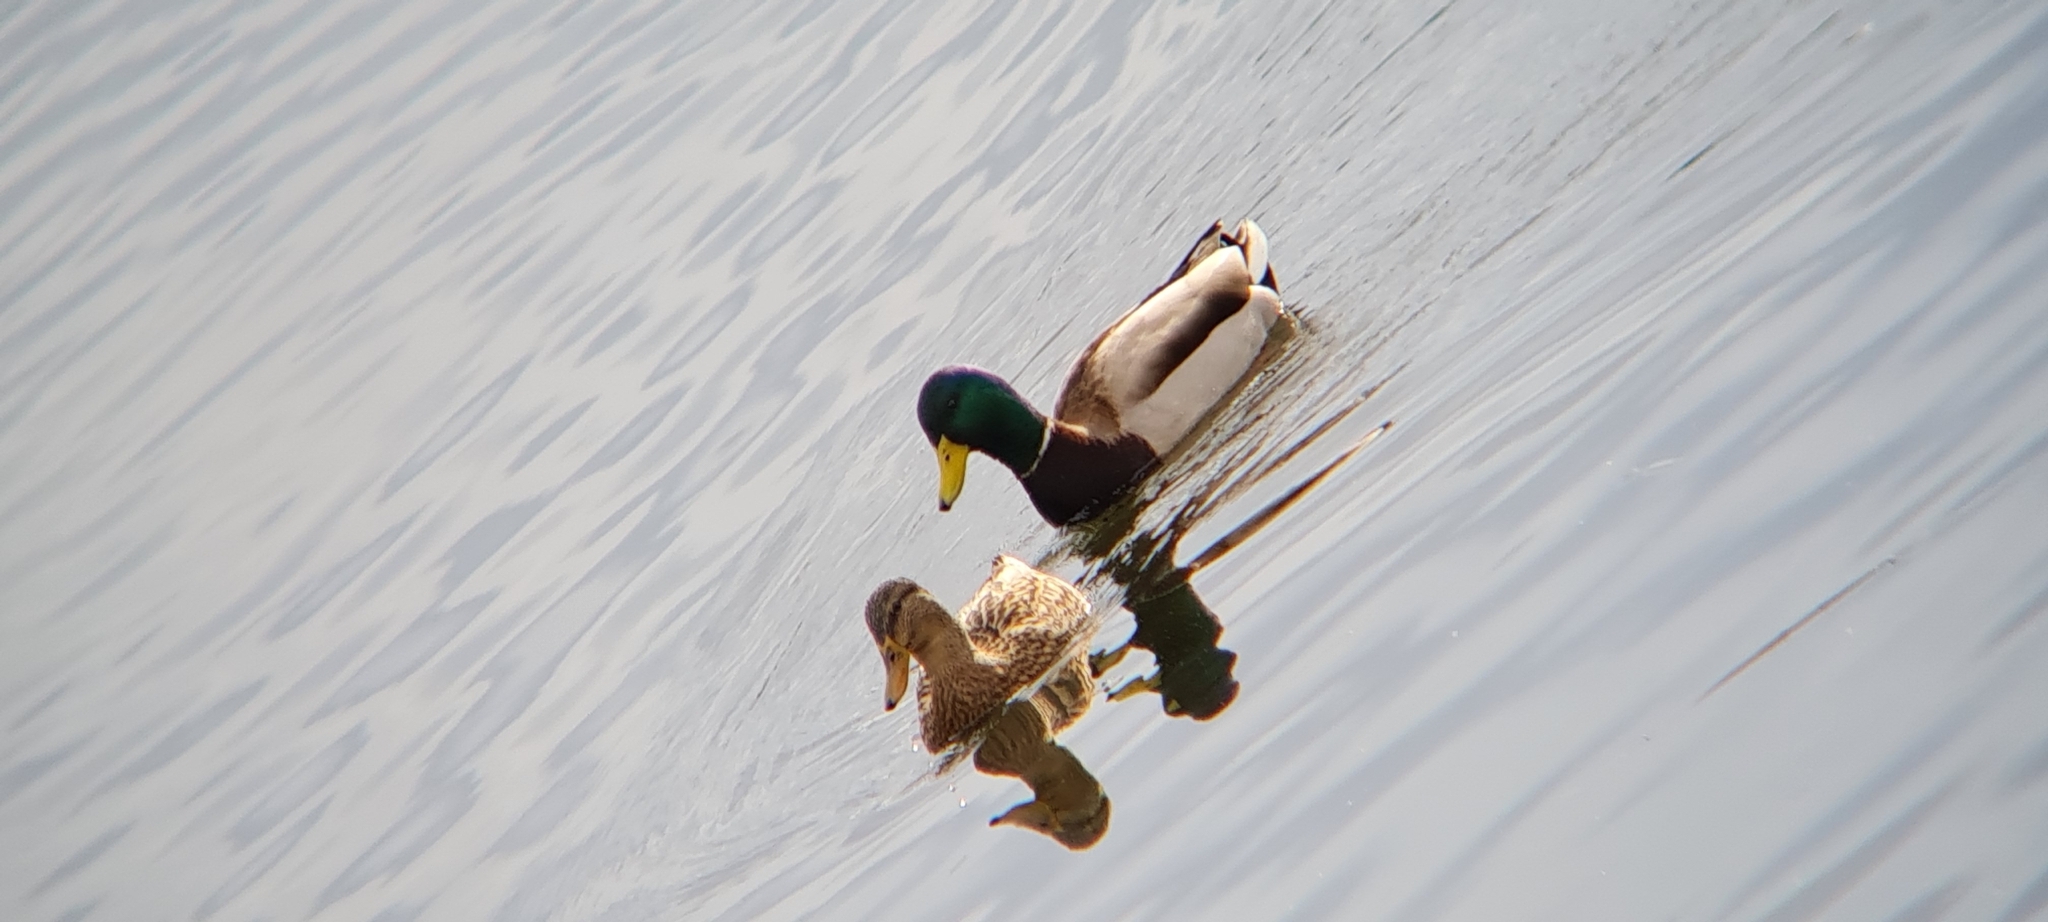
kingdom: Animalia
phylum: Chordata
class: Aves
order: Anseriformes
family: Anatidae
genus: Anas
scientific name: Anas platyrhynchos
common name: Mallard
